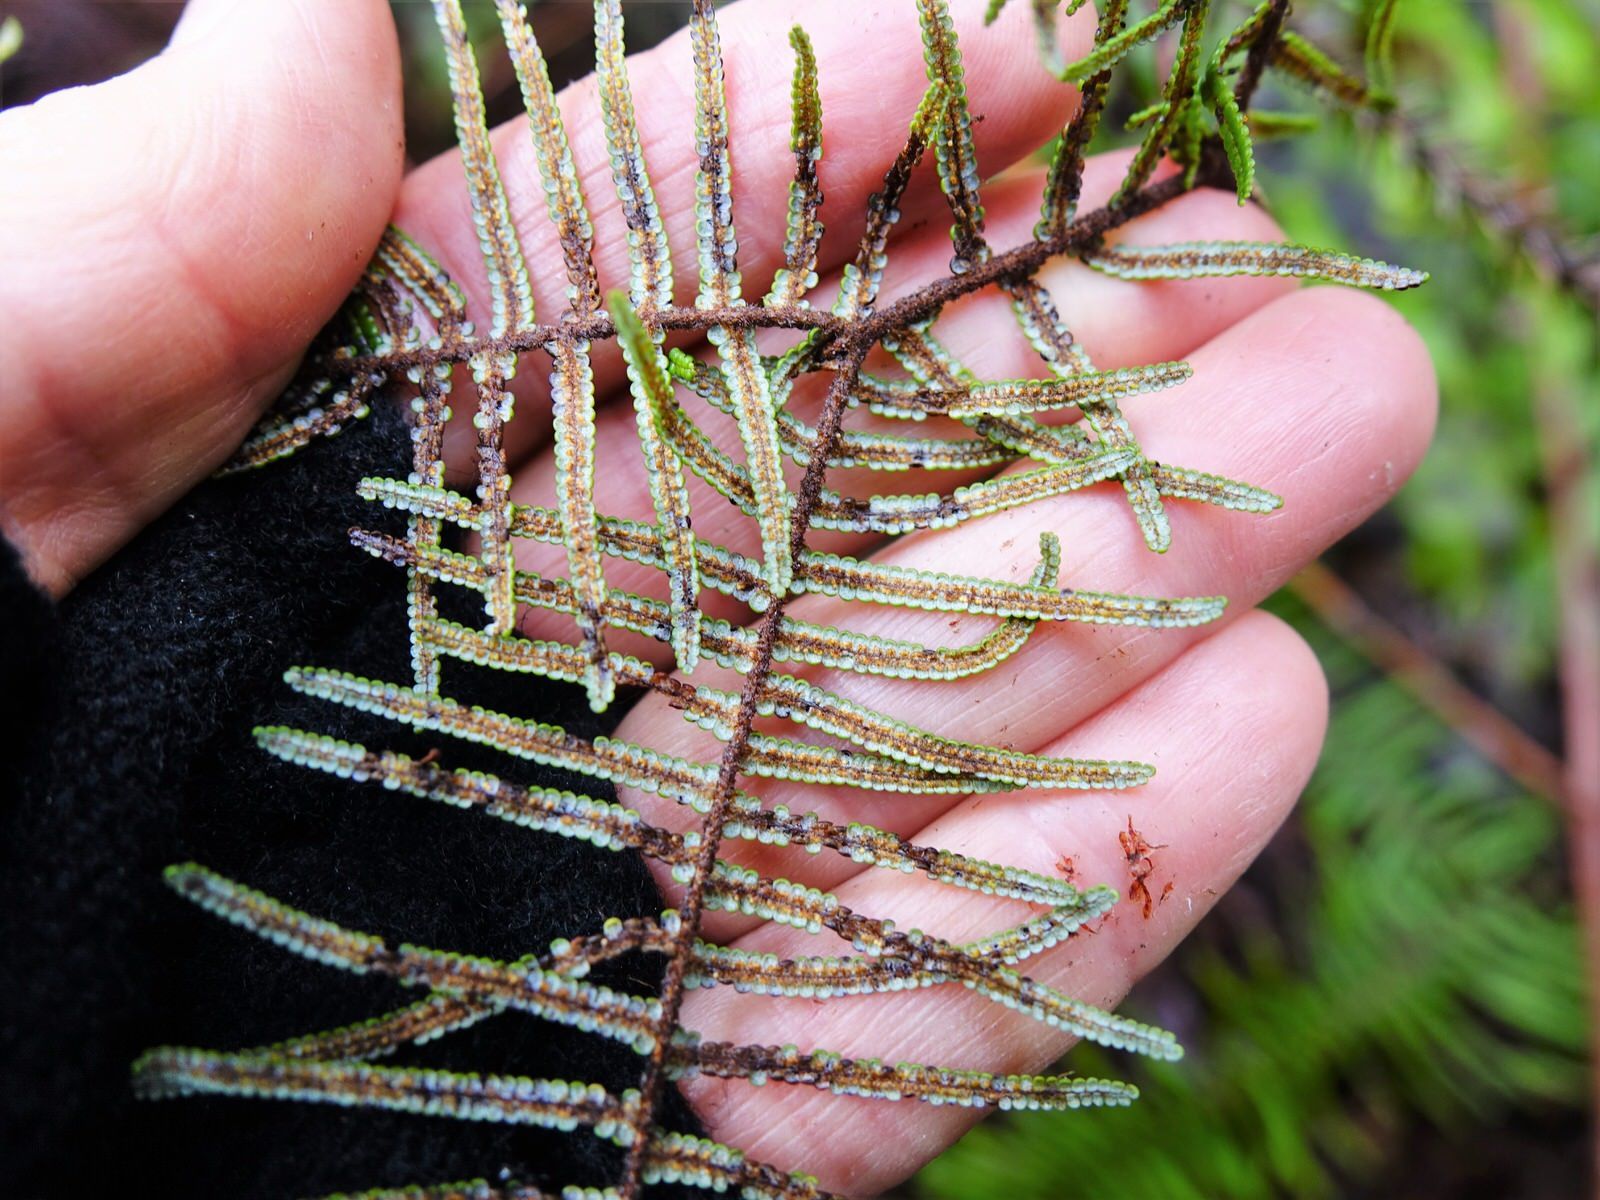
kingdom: Plantae
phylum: Tracheophyta
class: Polypodiopsida
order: Gleicheniales
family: Gleicheniaceae
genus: Gleichenia
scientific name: Gleichenia dicarpa
